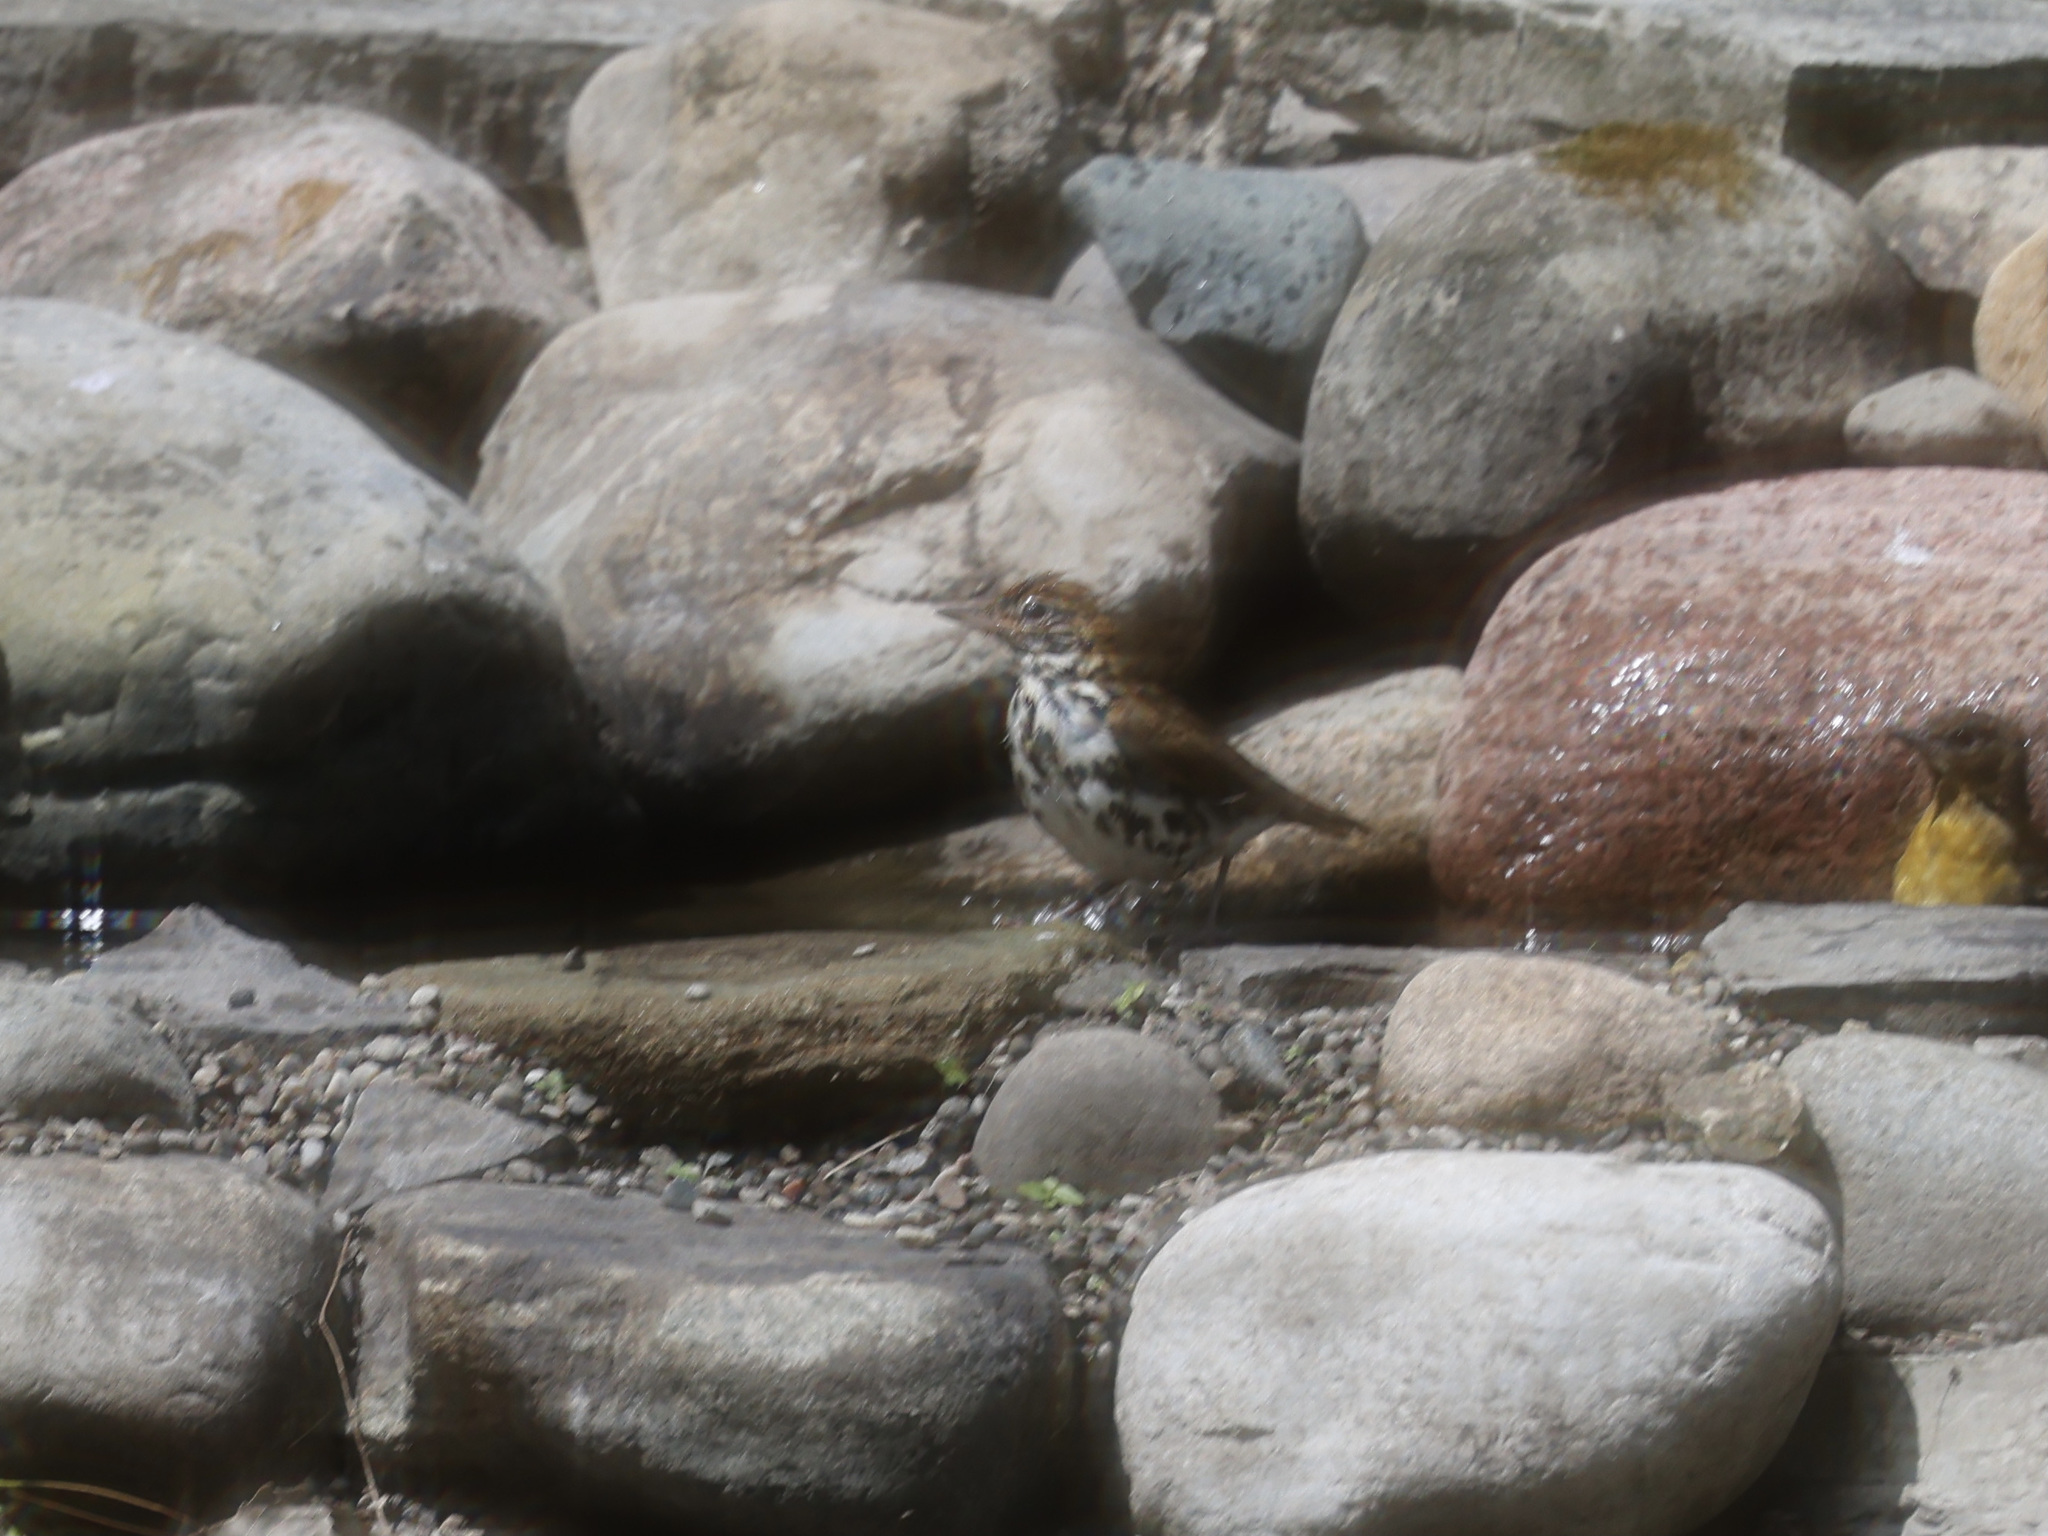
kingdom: Animalia
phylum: Chordata
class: Aves
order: Passeriformes
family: Turdidae
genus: Hylocichla
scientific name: Hylocichla mustelina
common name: Wood thrush
